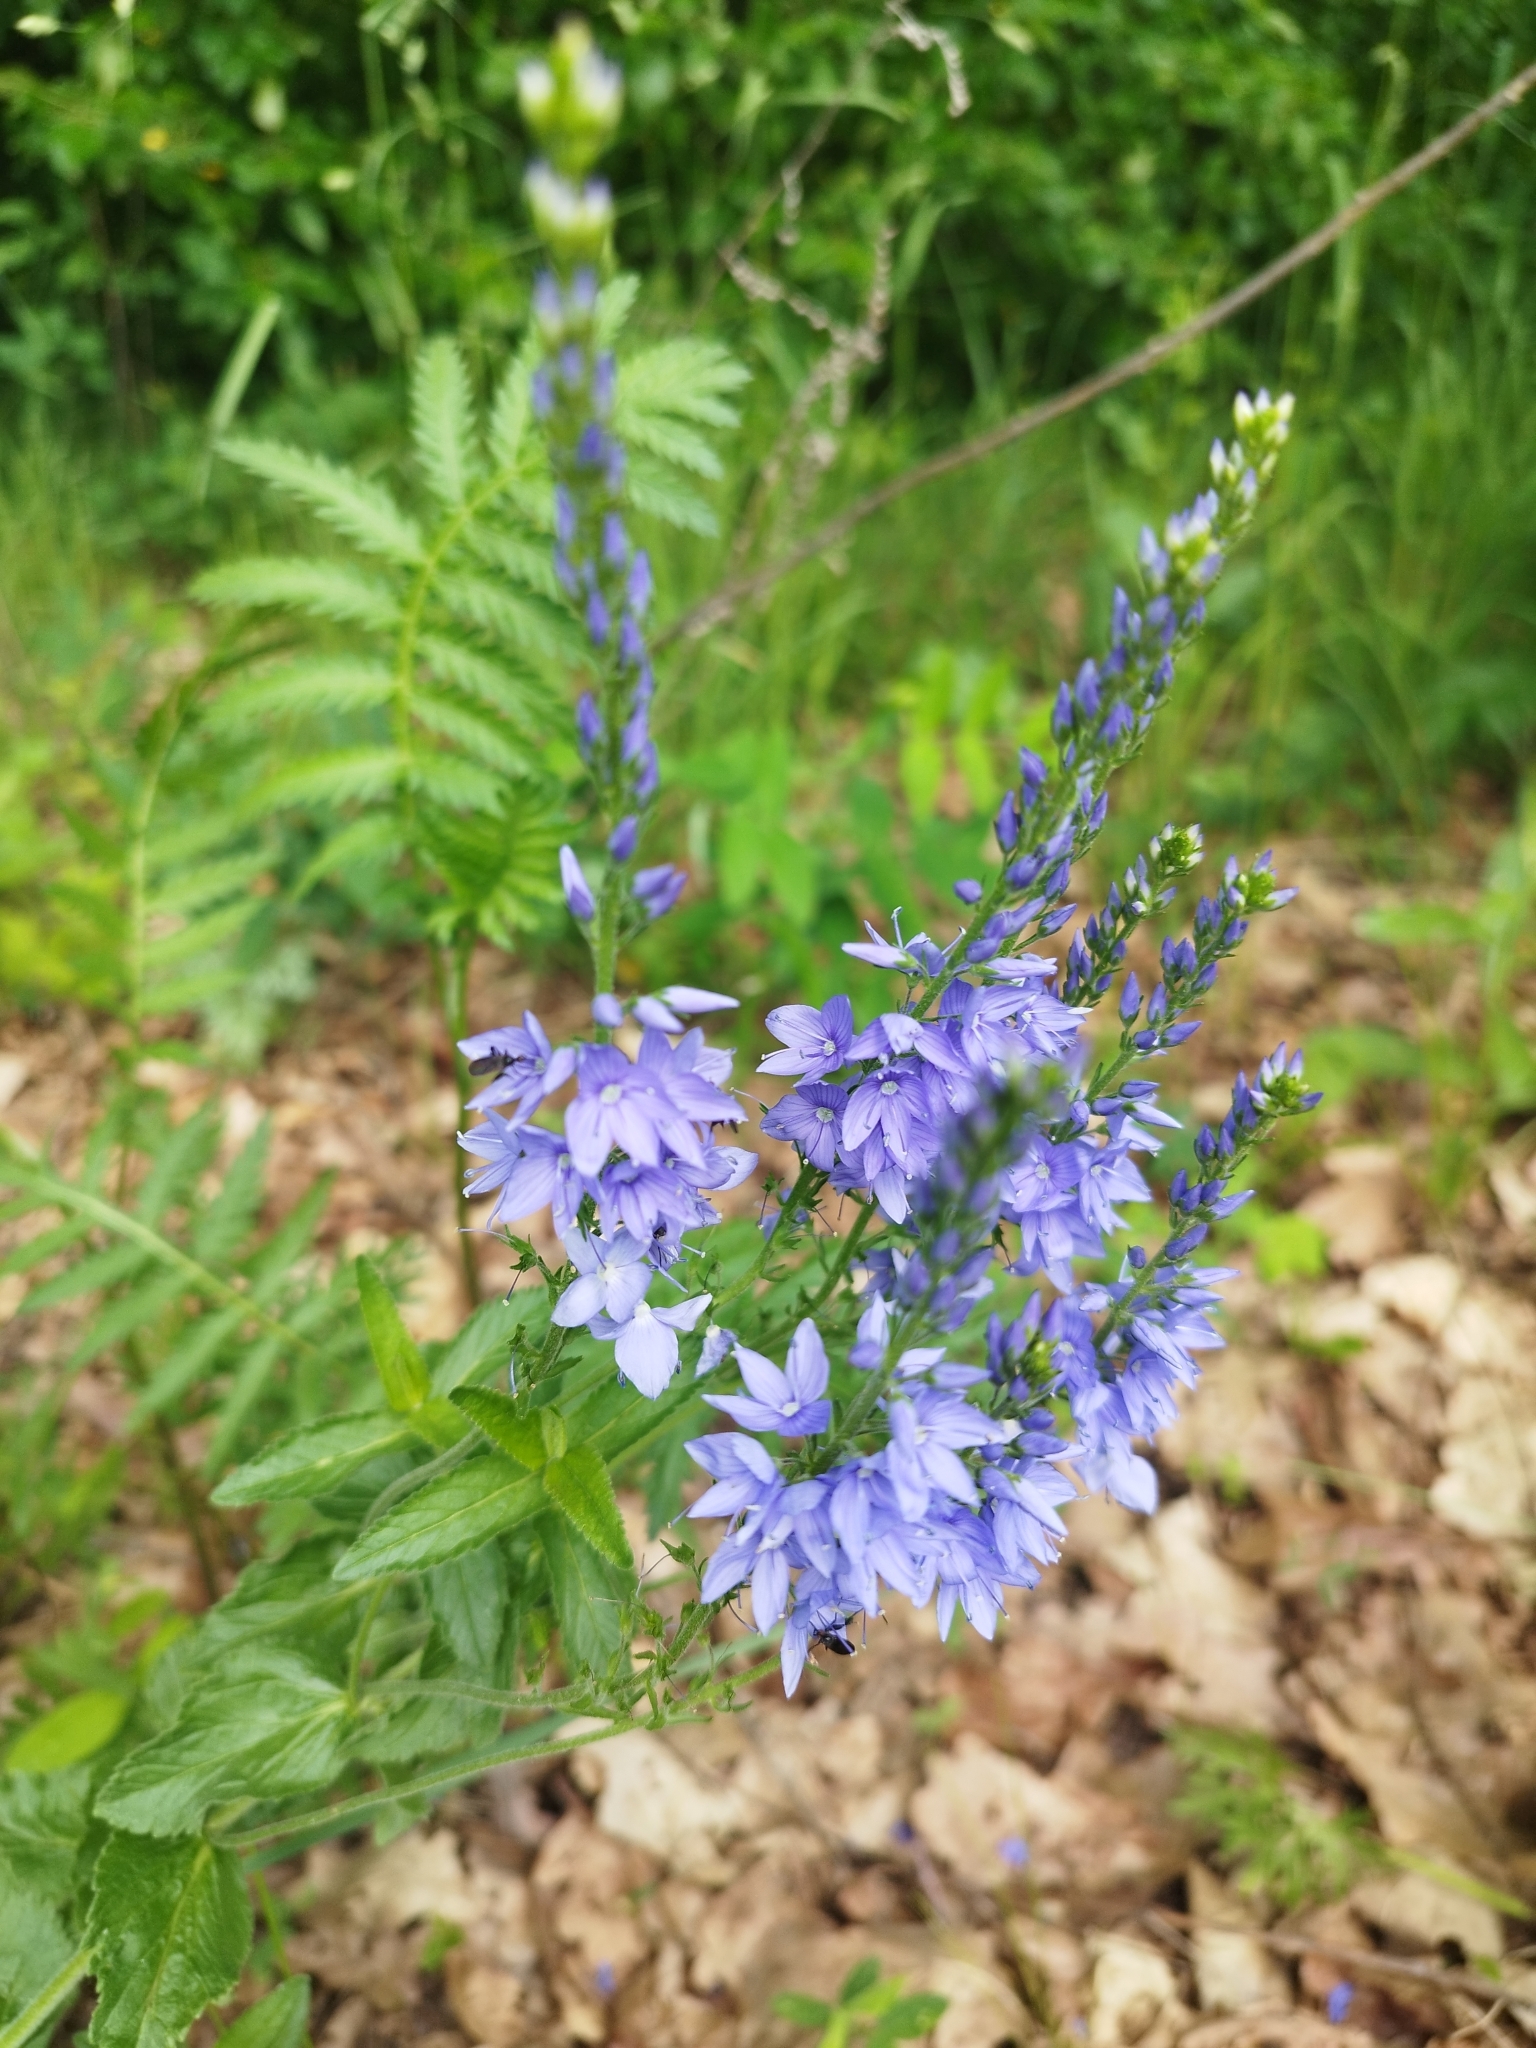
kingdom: Plantae
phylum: Tracheophyta
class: Magnoliopsida
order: Lamiales
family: Plantaginaceae
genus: Veronica
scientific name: Veronica teucrium
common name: Large speedwell
